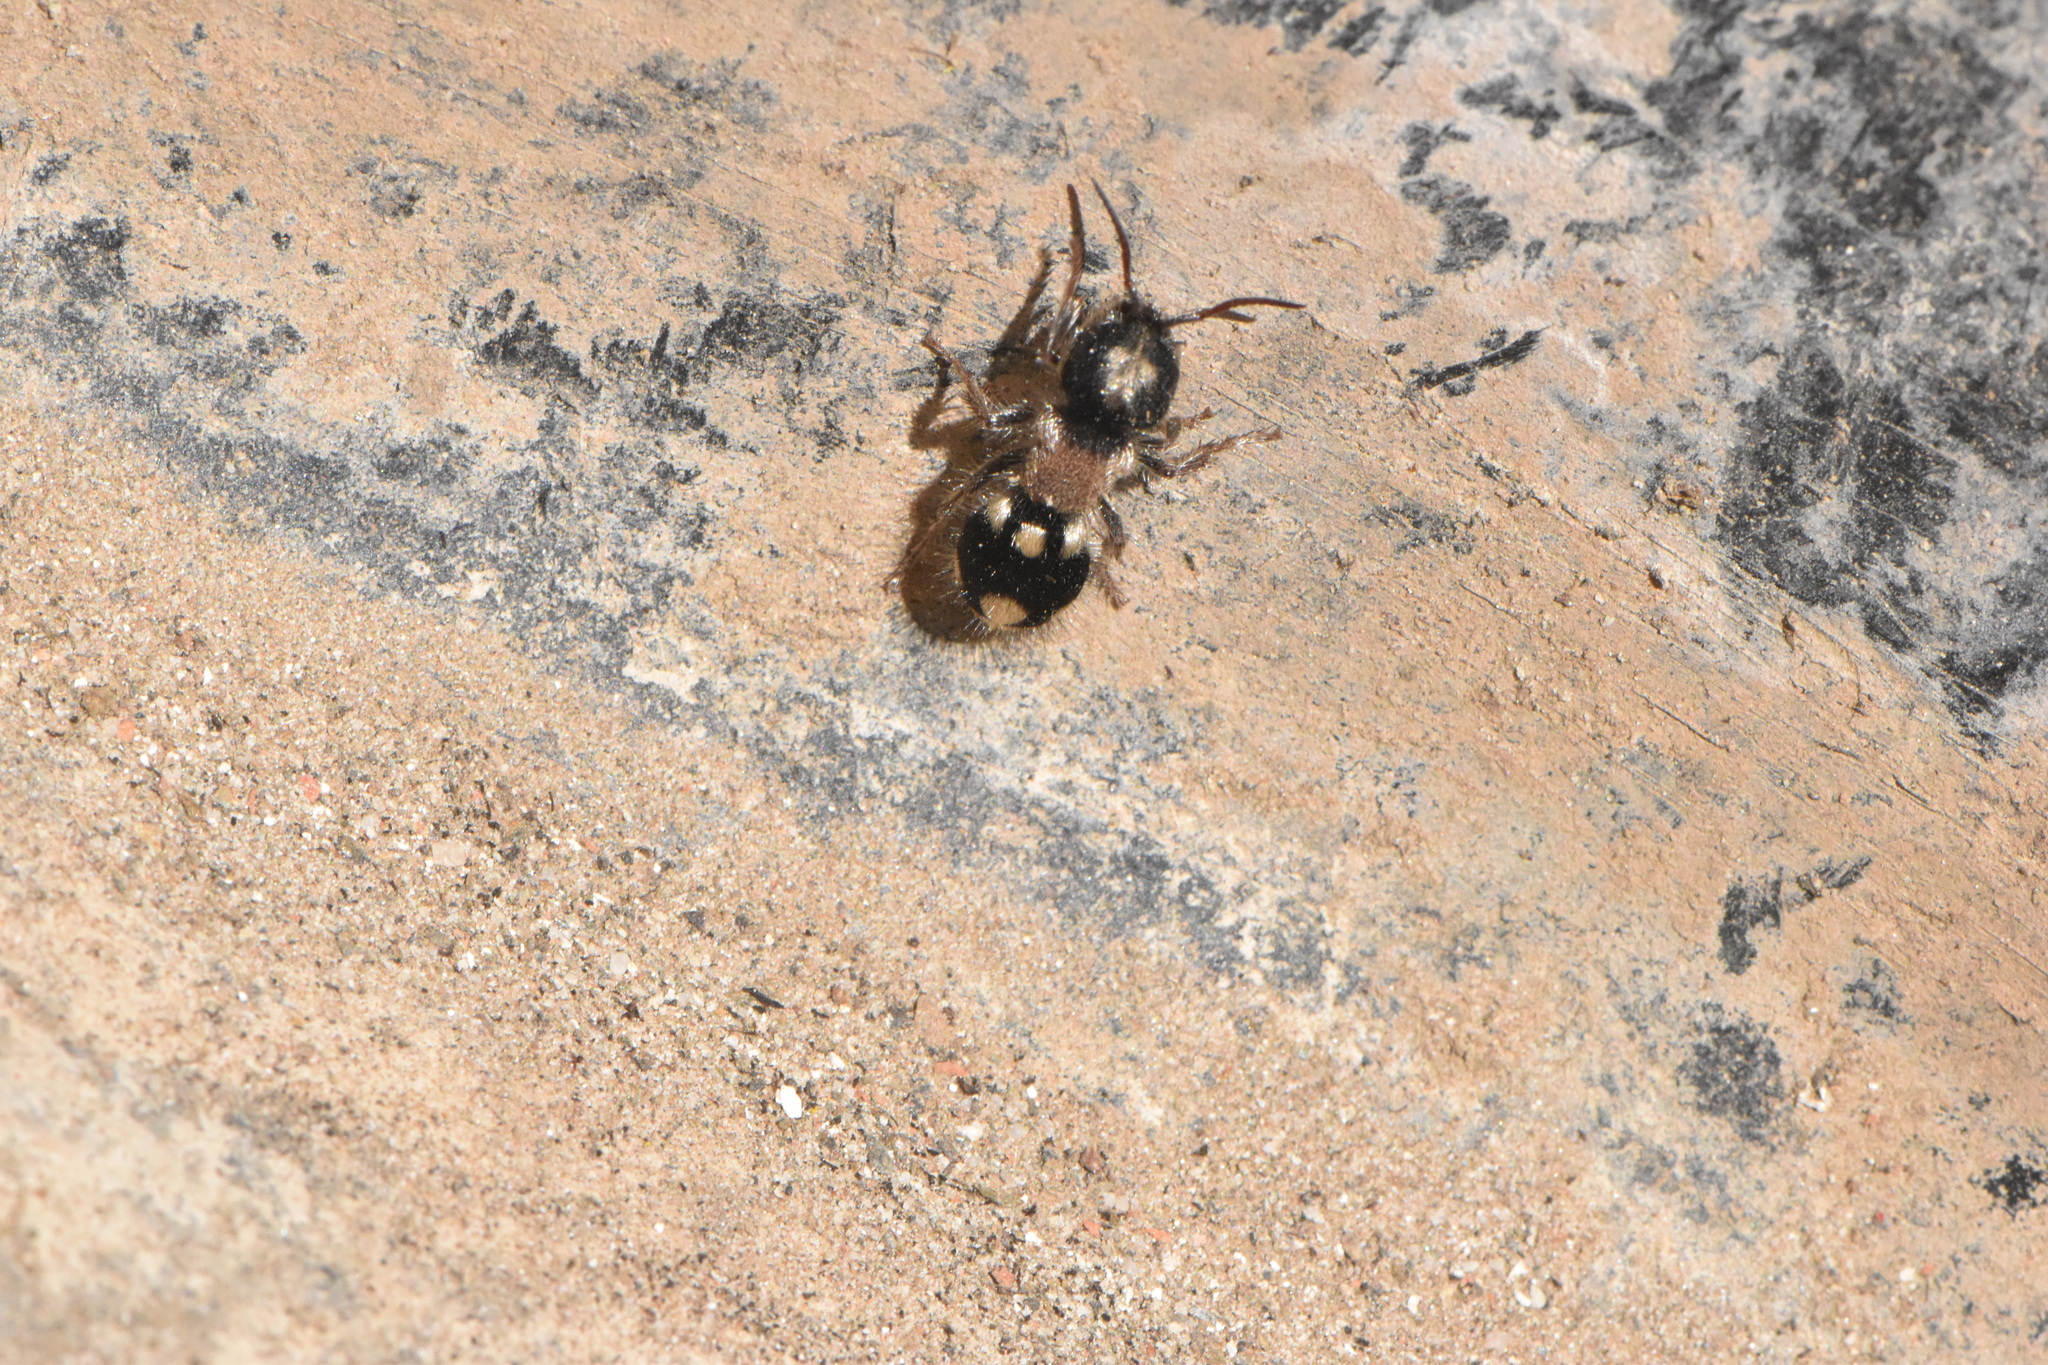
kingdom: Animalia
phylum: Arthropoda
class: Insecta
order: Hymenoptera
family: Mutillidae
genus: Ronisia
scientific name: Ronisia barbarula
